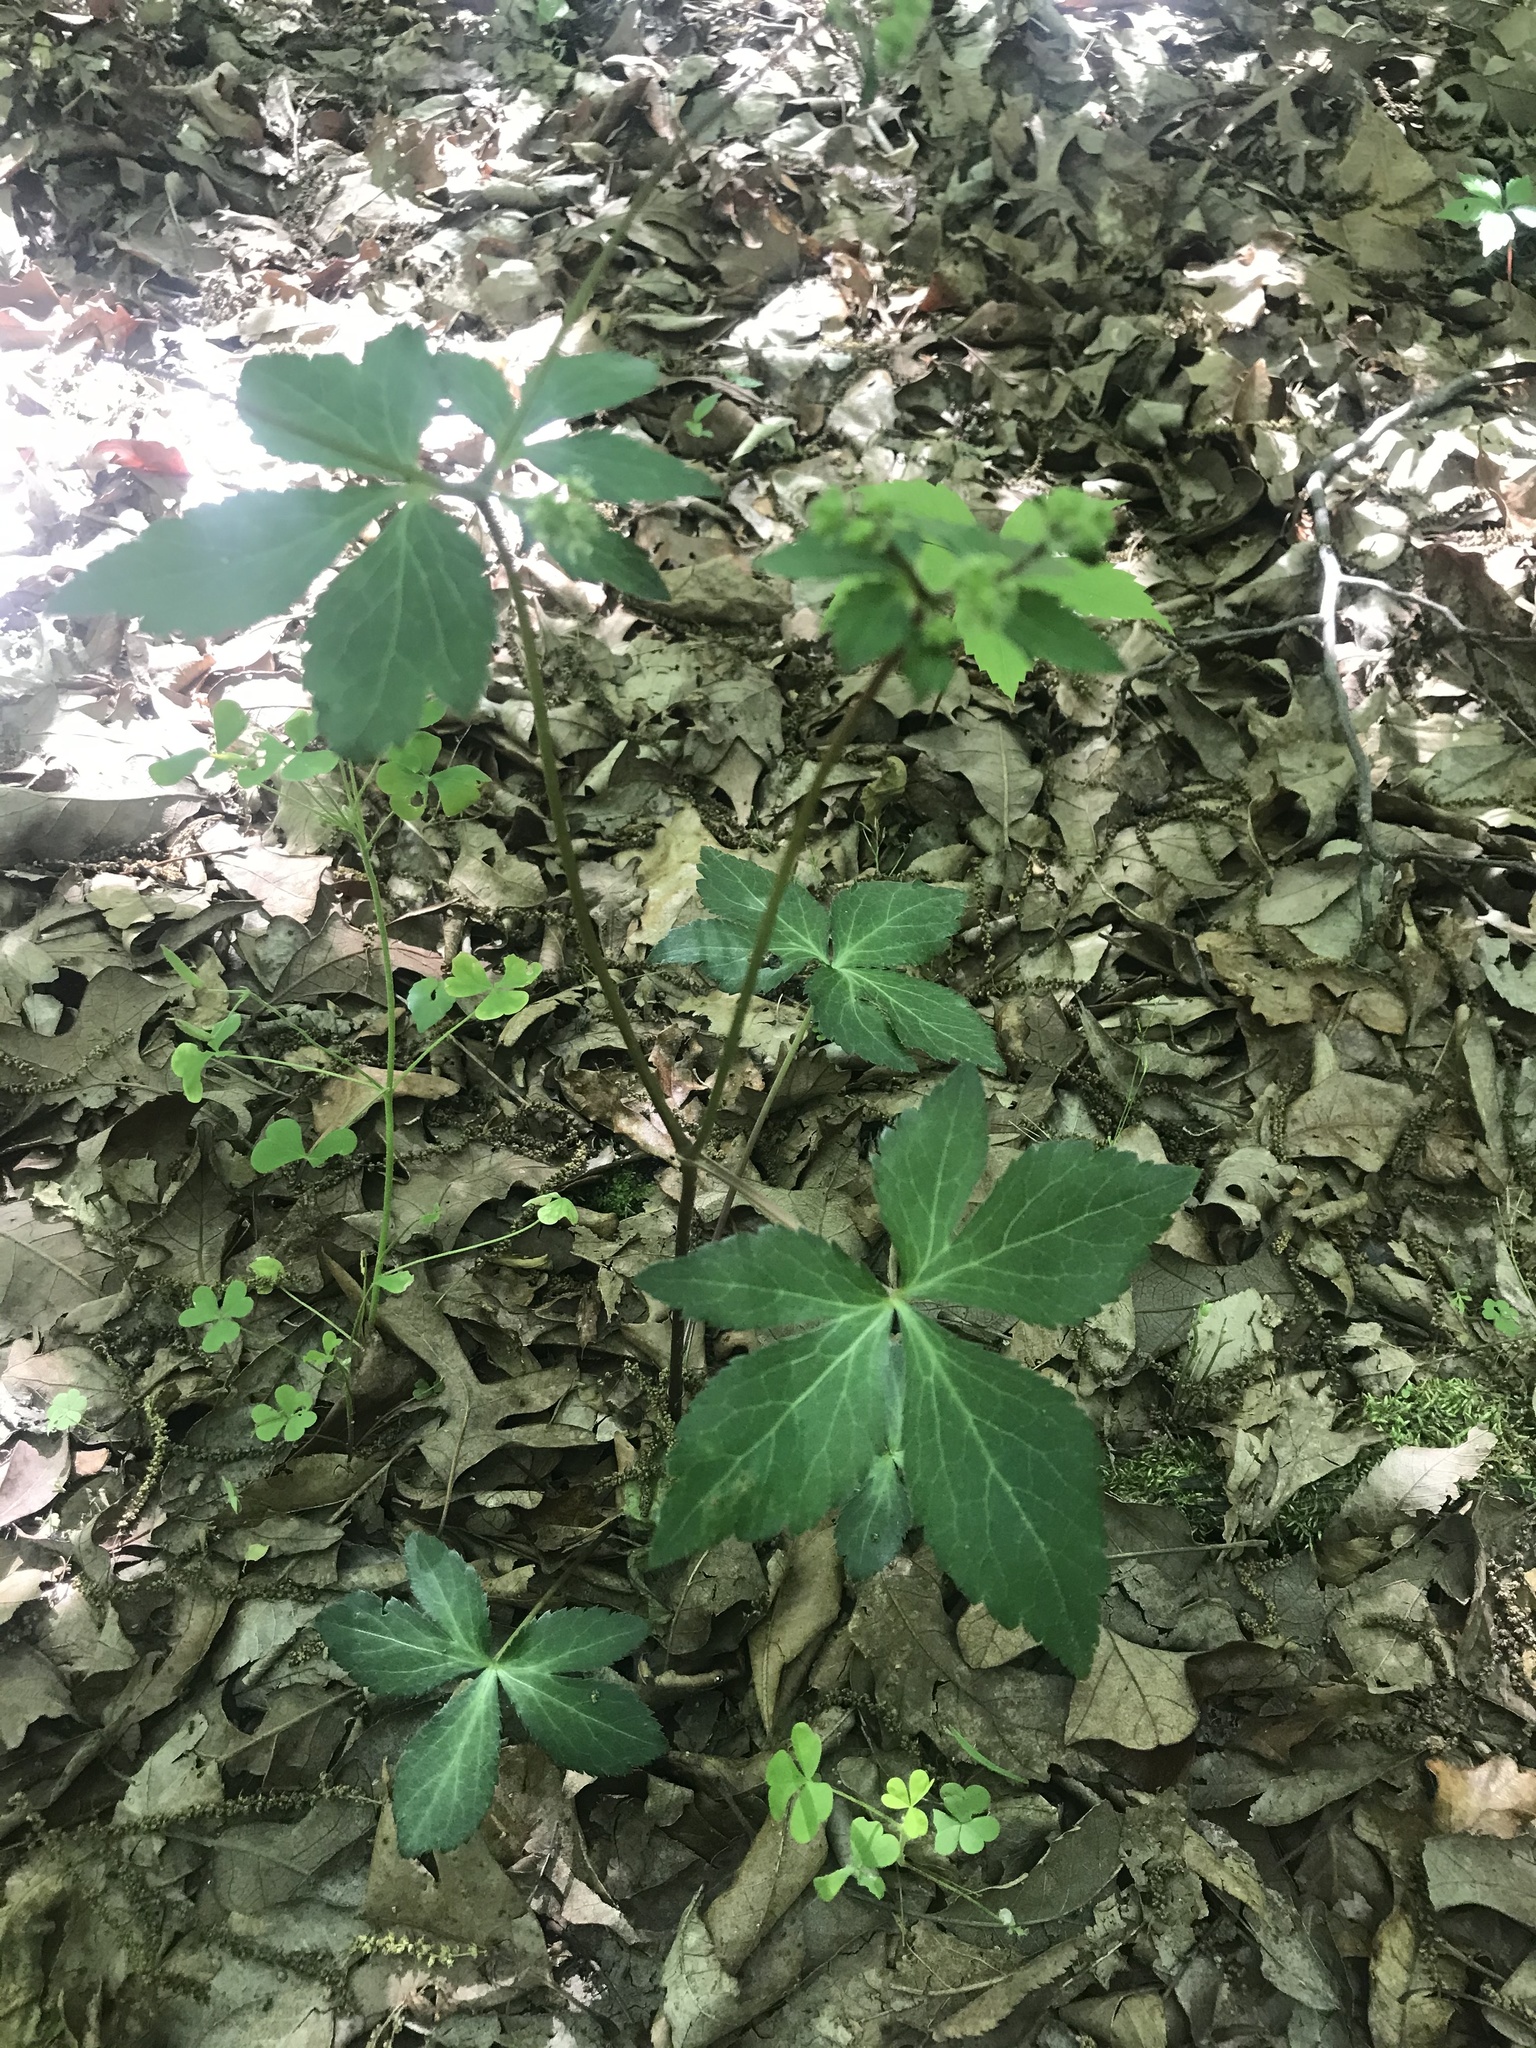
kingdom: Plantae
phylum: Tracheophyta
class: Magnoliopsida
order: Apiales
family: Apiaceae
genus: Sanicula
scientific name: Sanicula smallii
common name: Small's black snakeroot
